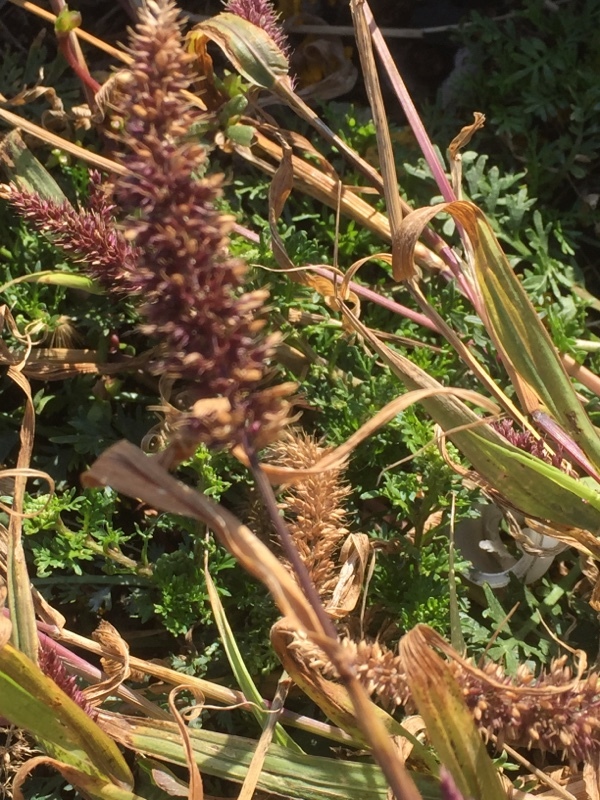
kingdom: Plantae
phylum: Tracheophyta
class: Liliopsida
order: Poales
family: Poaceae
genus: Setaria
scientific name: Setaria verticillata
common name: Hooked bristlegrass
